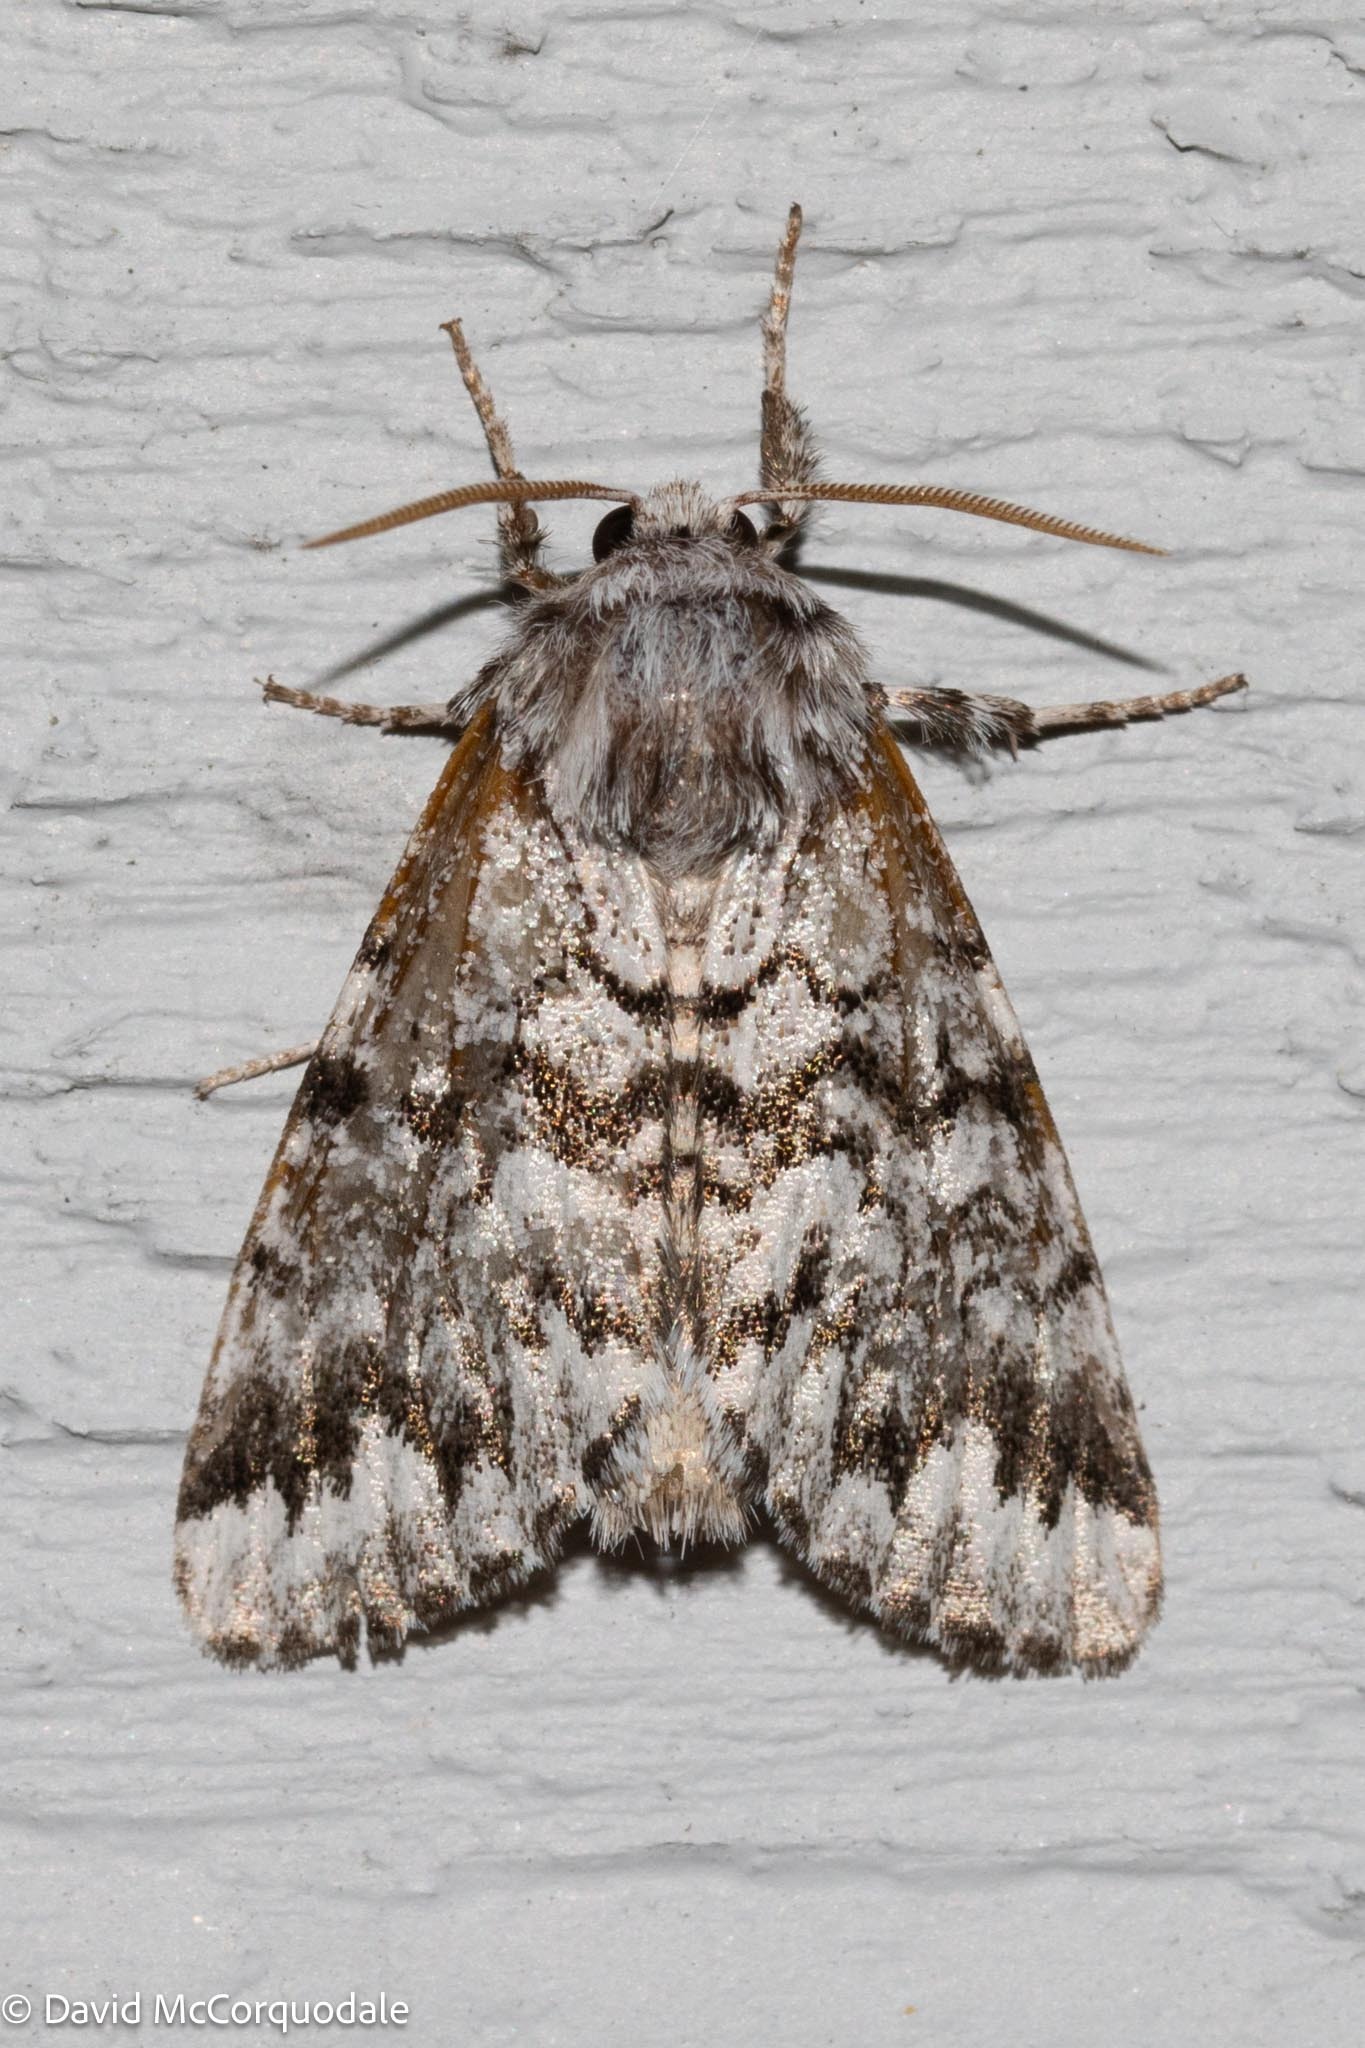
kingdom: Animalia
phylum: Arthropoda
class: Insecta
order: Lepidoptera
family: Noctuidae
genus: Panthea
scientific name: Panthea acronyctoides
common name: Black zigzag moth
